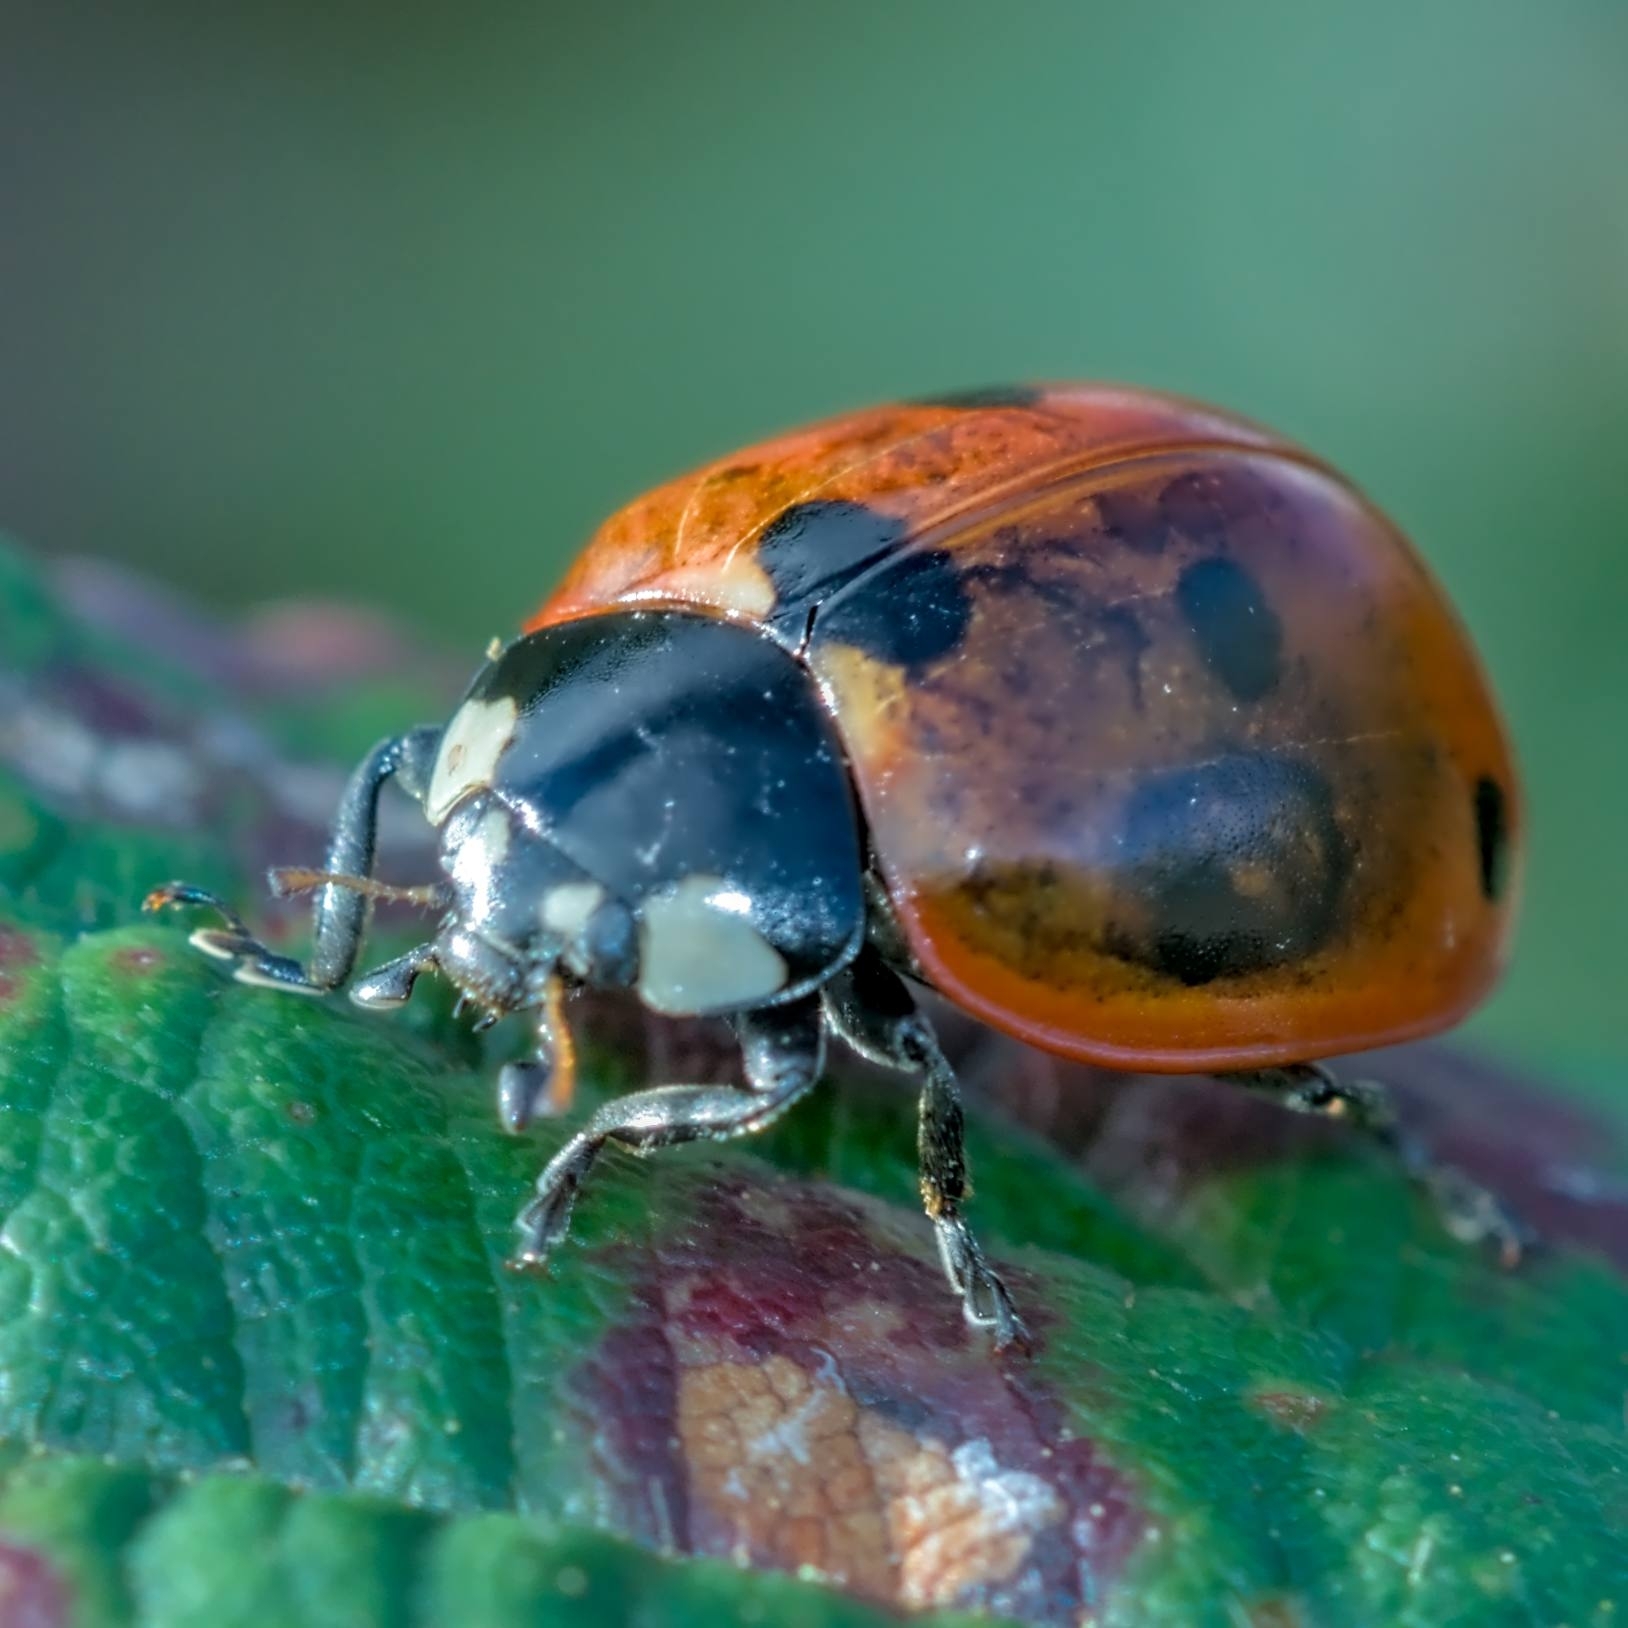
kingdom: Animalia
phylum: Arthropoda
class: Insecta
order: Coleoptera
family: Coccinellidae
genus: Coccinella
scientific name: Coccinella septempunctata
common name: Sevenspotted lady beetle
